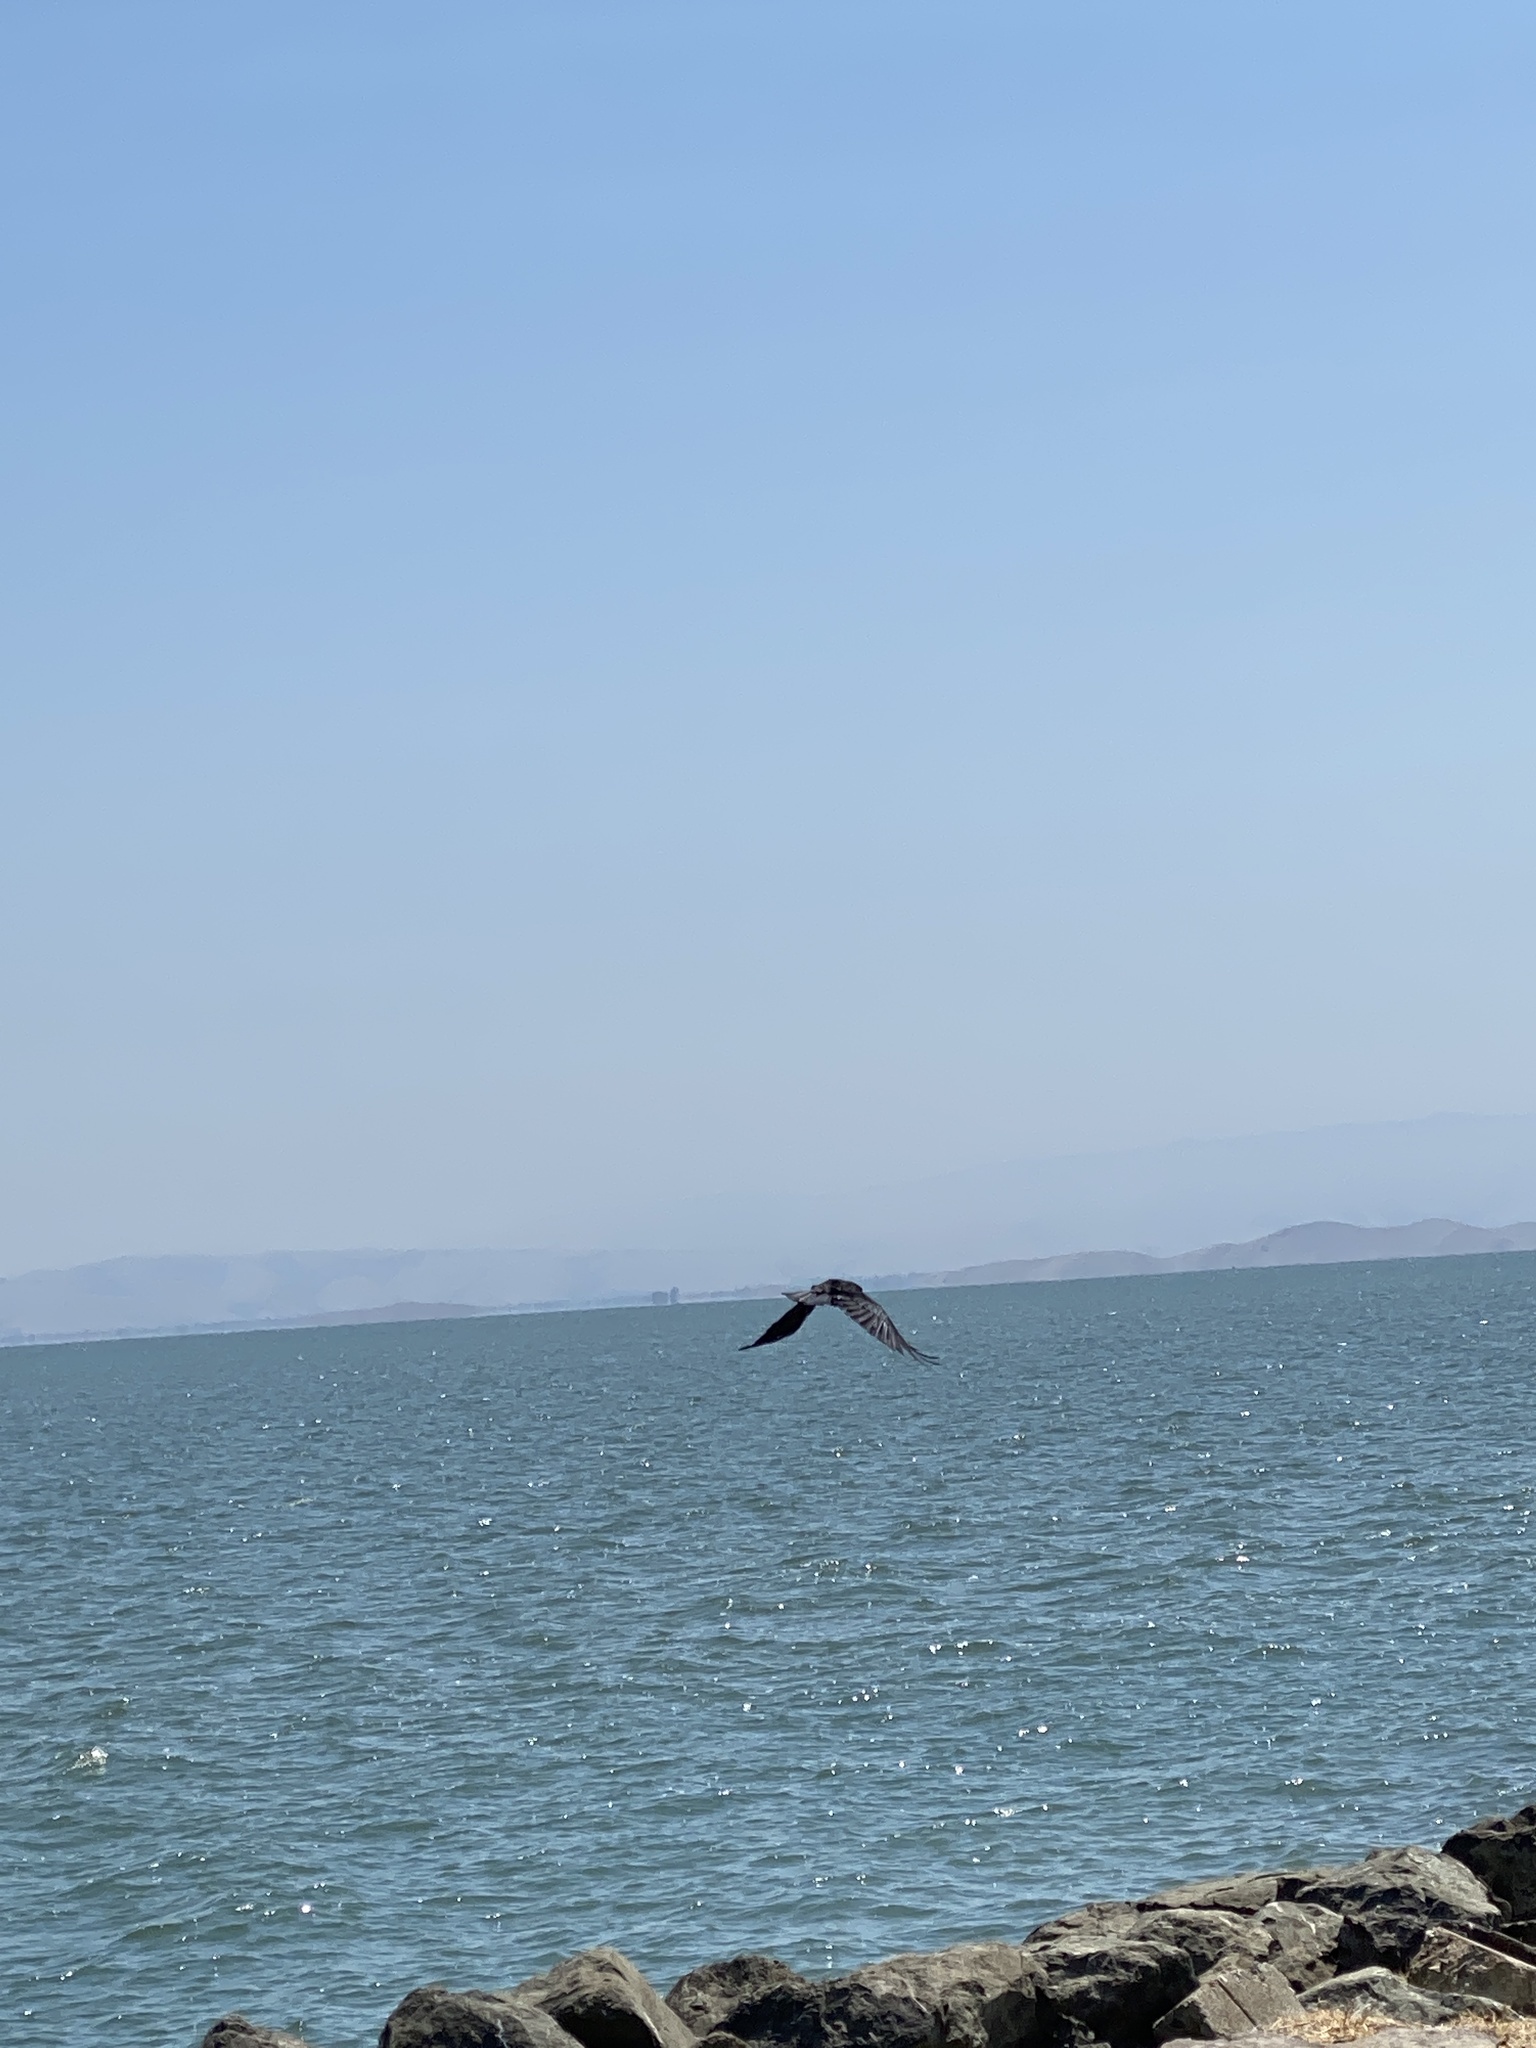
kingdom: Animalia
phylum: Chordata
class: Aves
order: Passeriformes
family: Corvidae
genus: Corvus
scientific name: Corvus brachyrhynchos
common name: American crow
